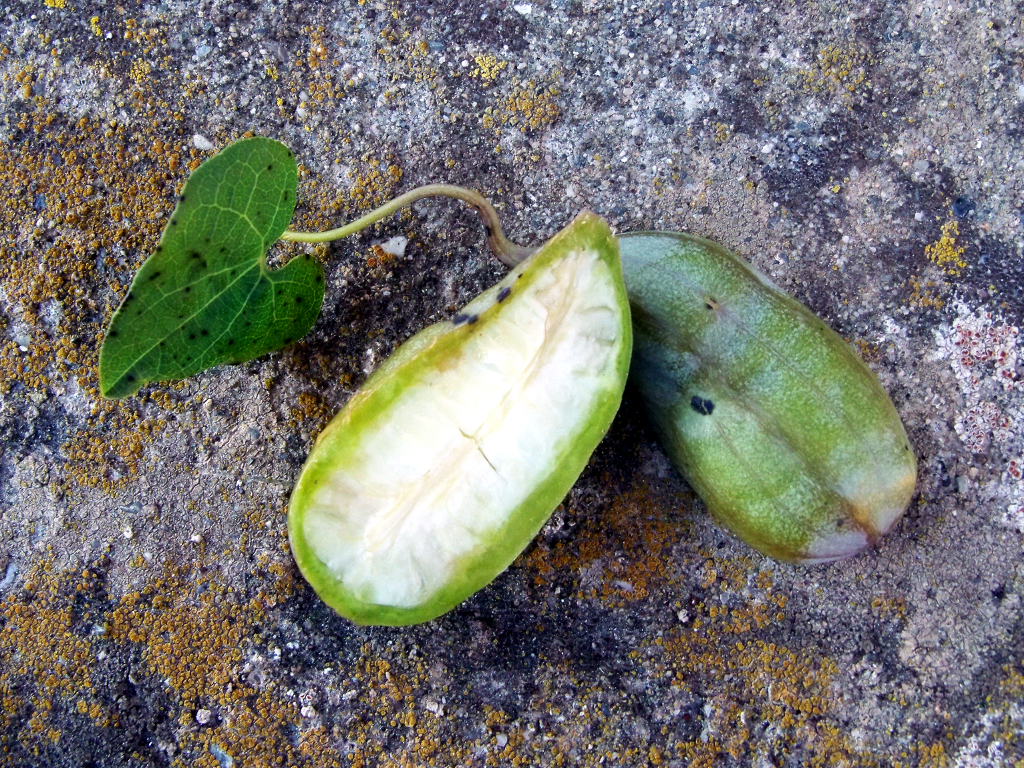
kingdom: Plantae
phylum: Tracheophyta
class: Magnoliopsida
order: Piperales
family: Aristolochiaceae
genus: Aristolochia
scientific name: Aristolochia baetica
